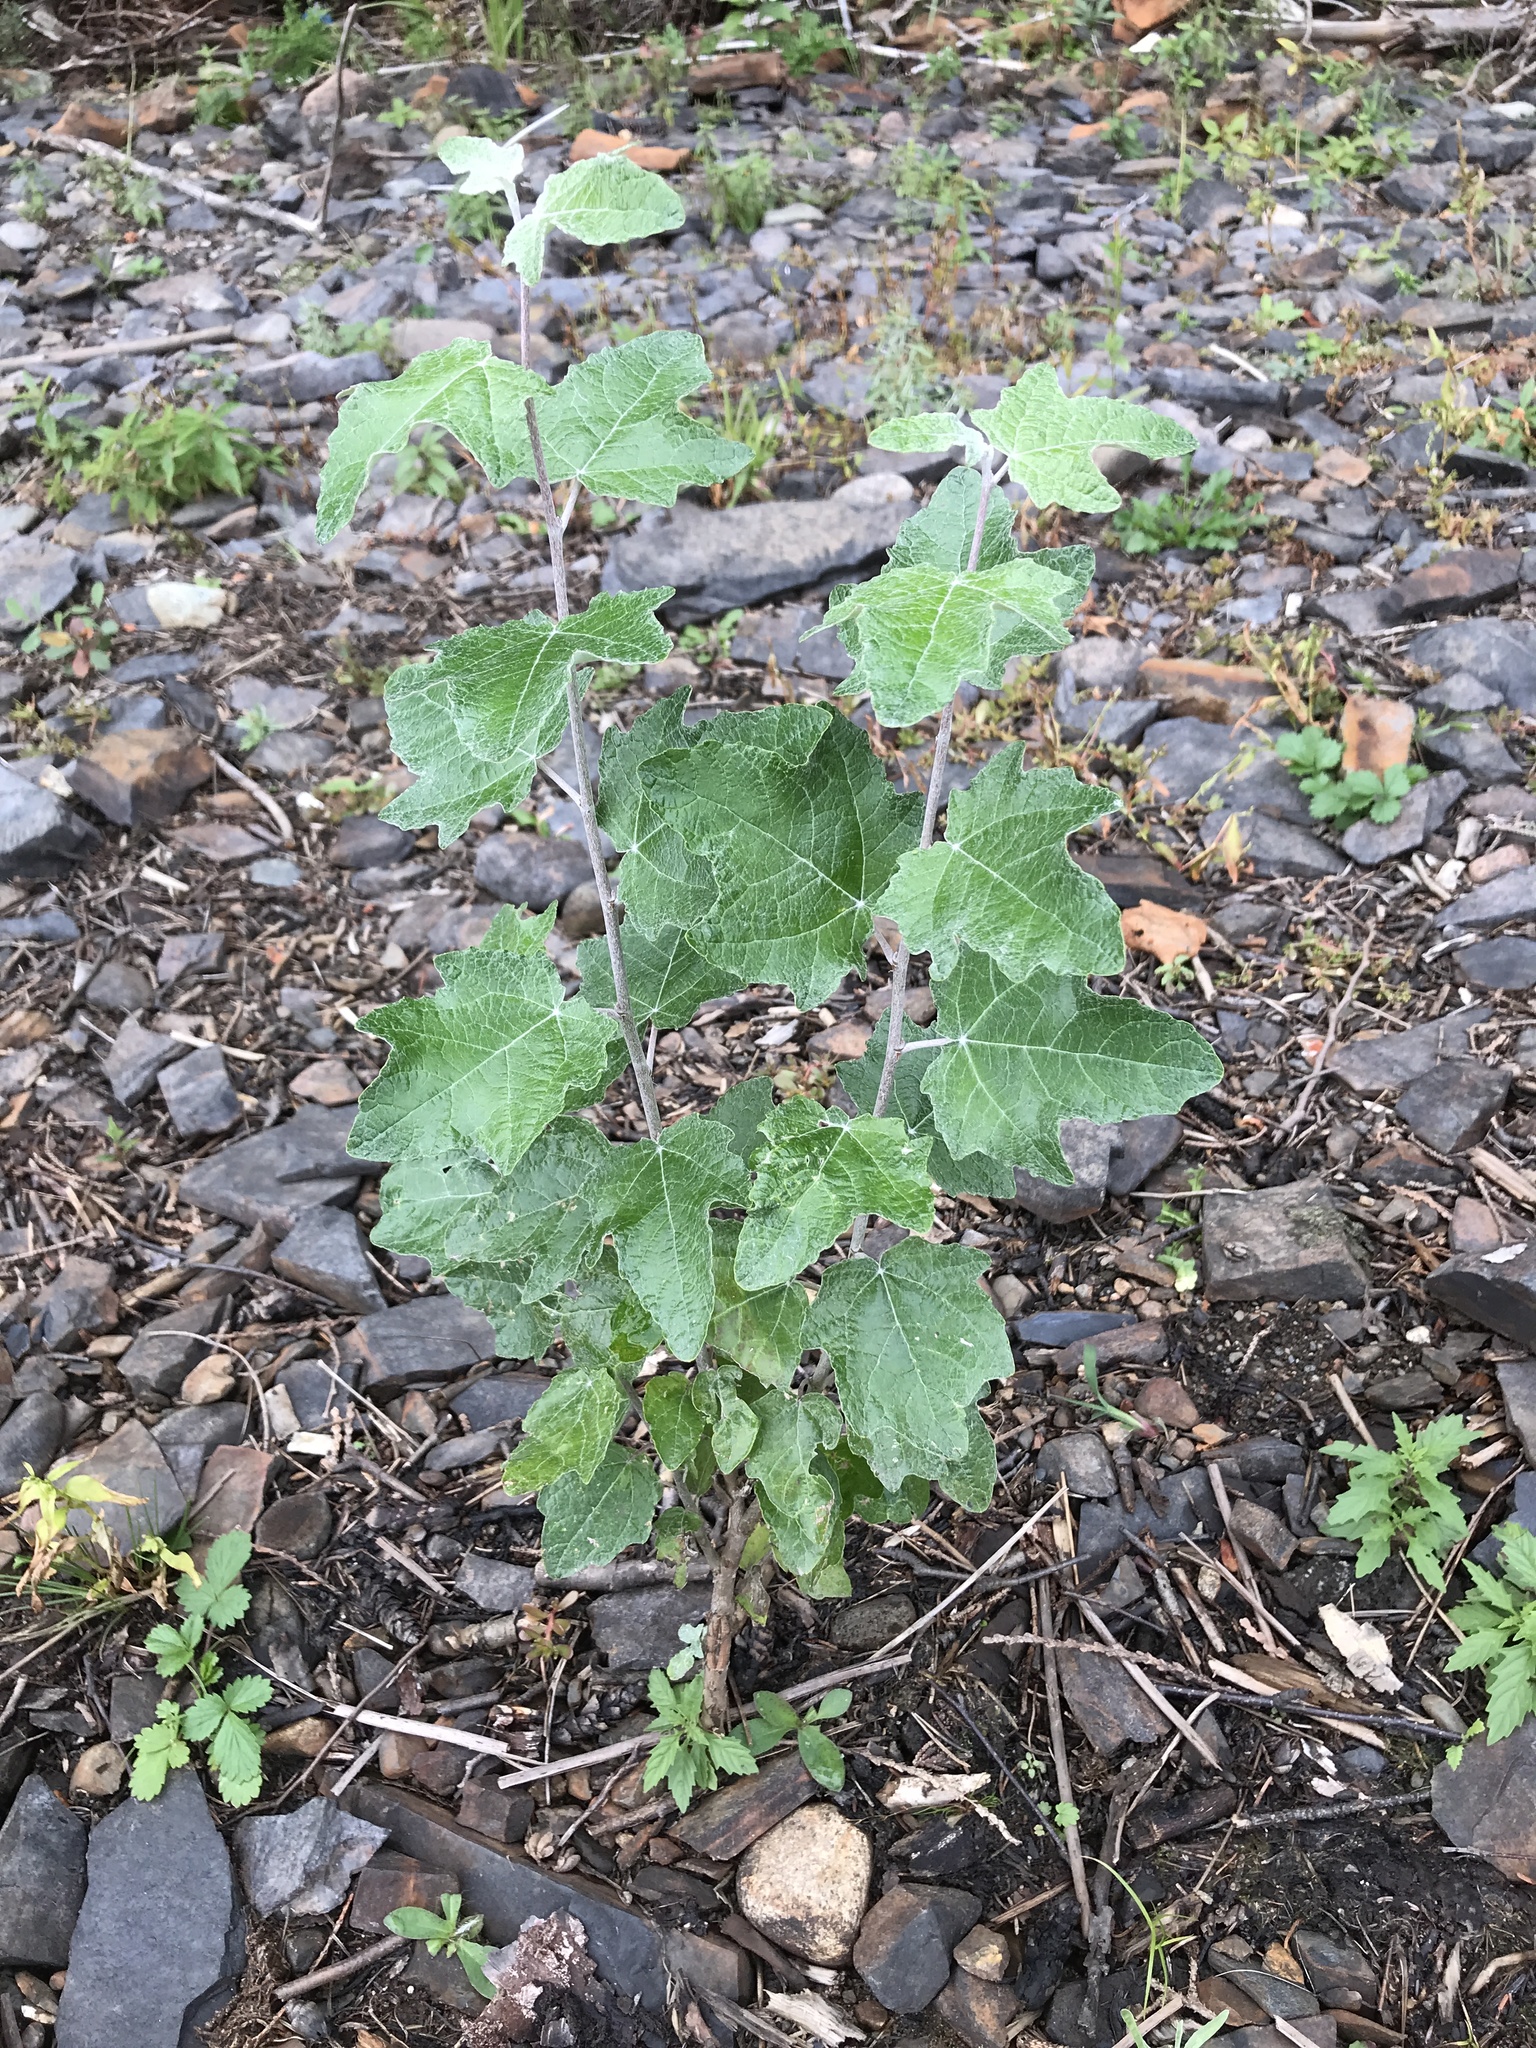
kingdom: Plantae
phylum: Tracheophyta
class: Magnoliopsida
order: Malpighiales
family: Salicaceae
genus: Populus
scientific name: Populus alba
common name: White poplar
